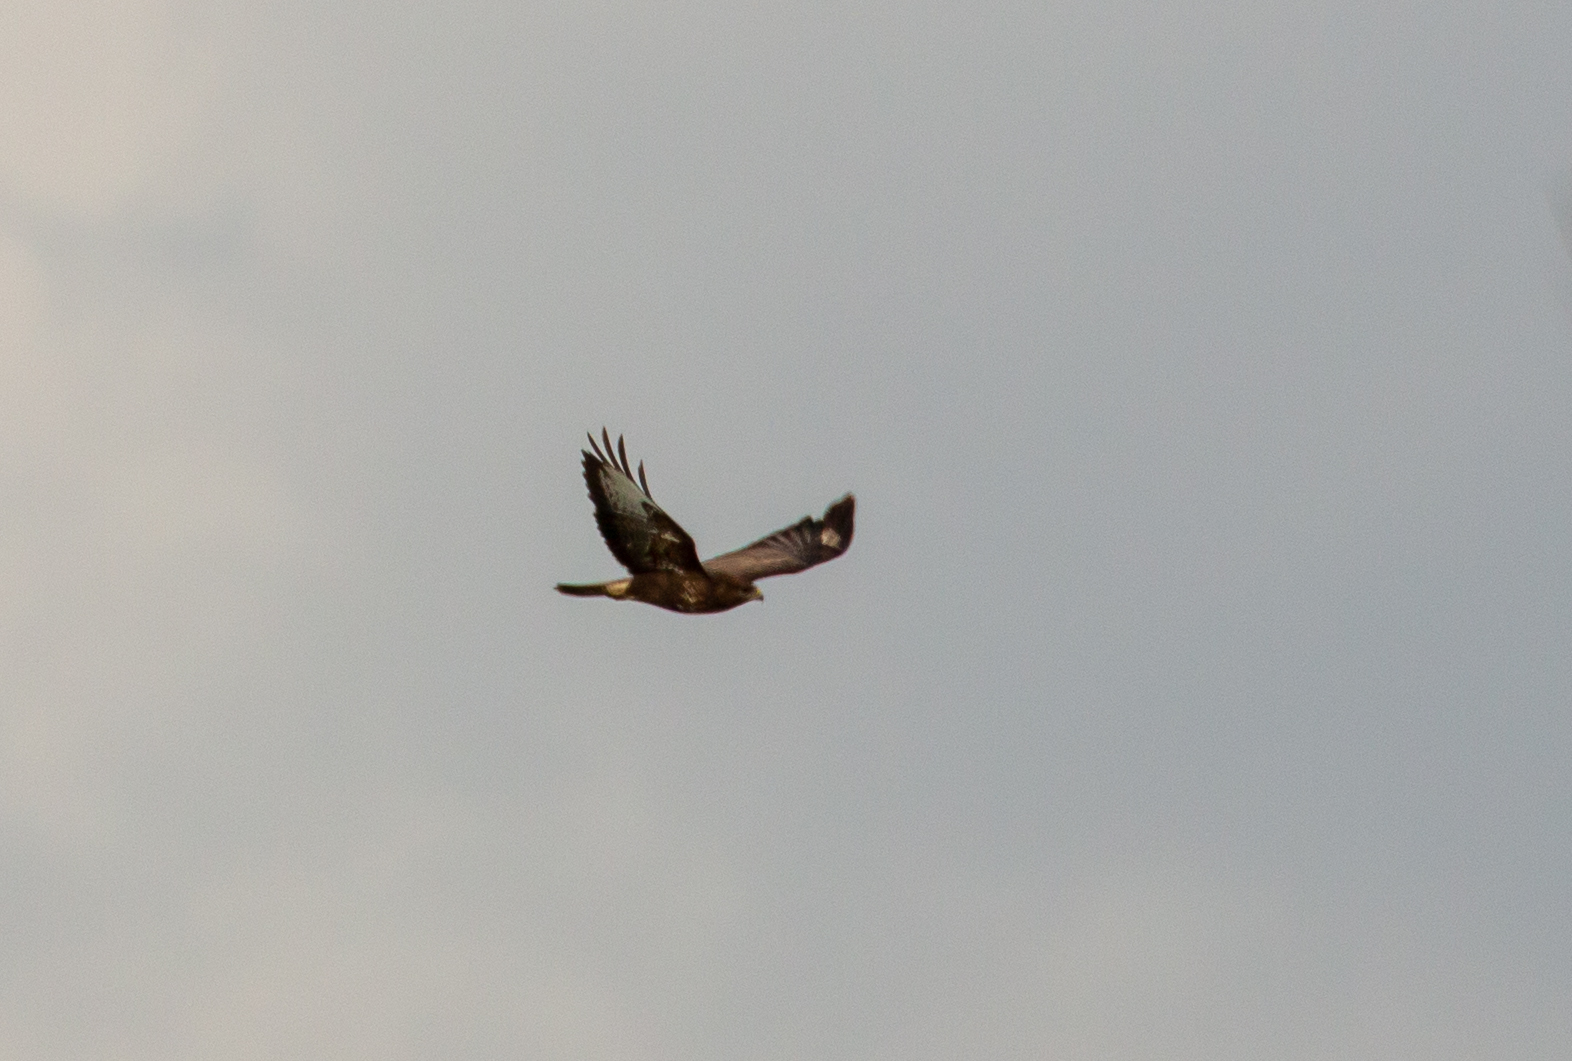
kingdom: Animalia
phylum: Chordata
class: Aves
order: Accipitriformes
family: Accipitridae
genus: Buteo
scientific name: Buteo buteo
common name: Common buzzard
